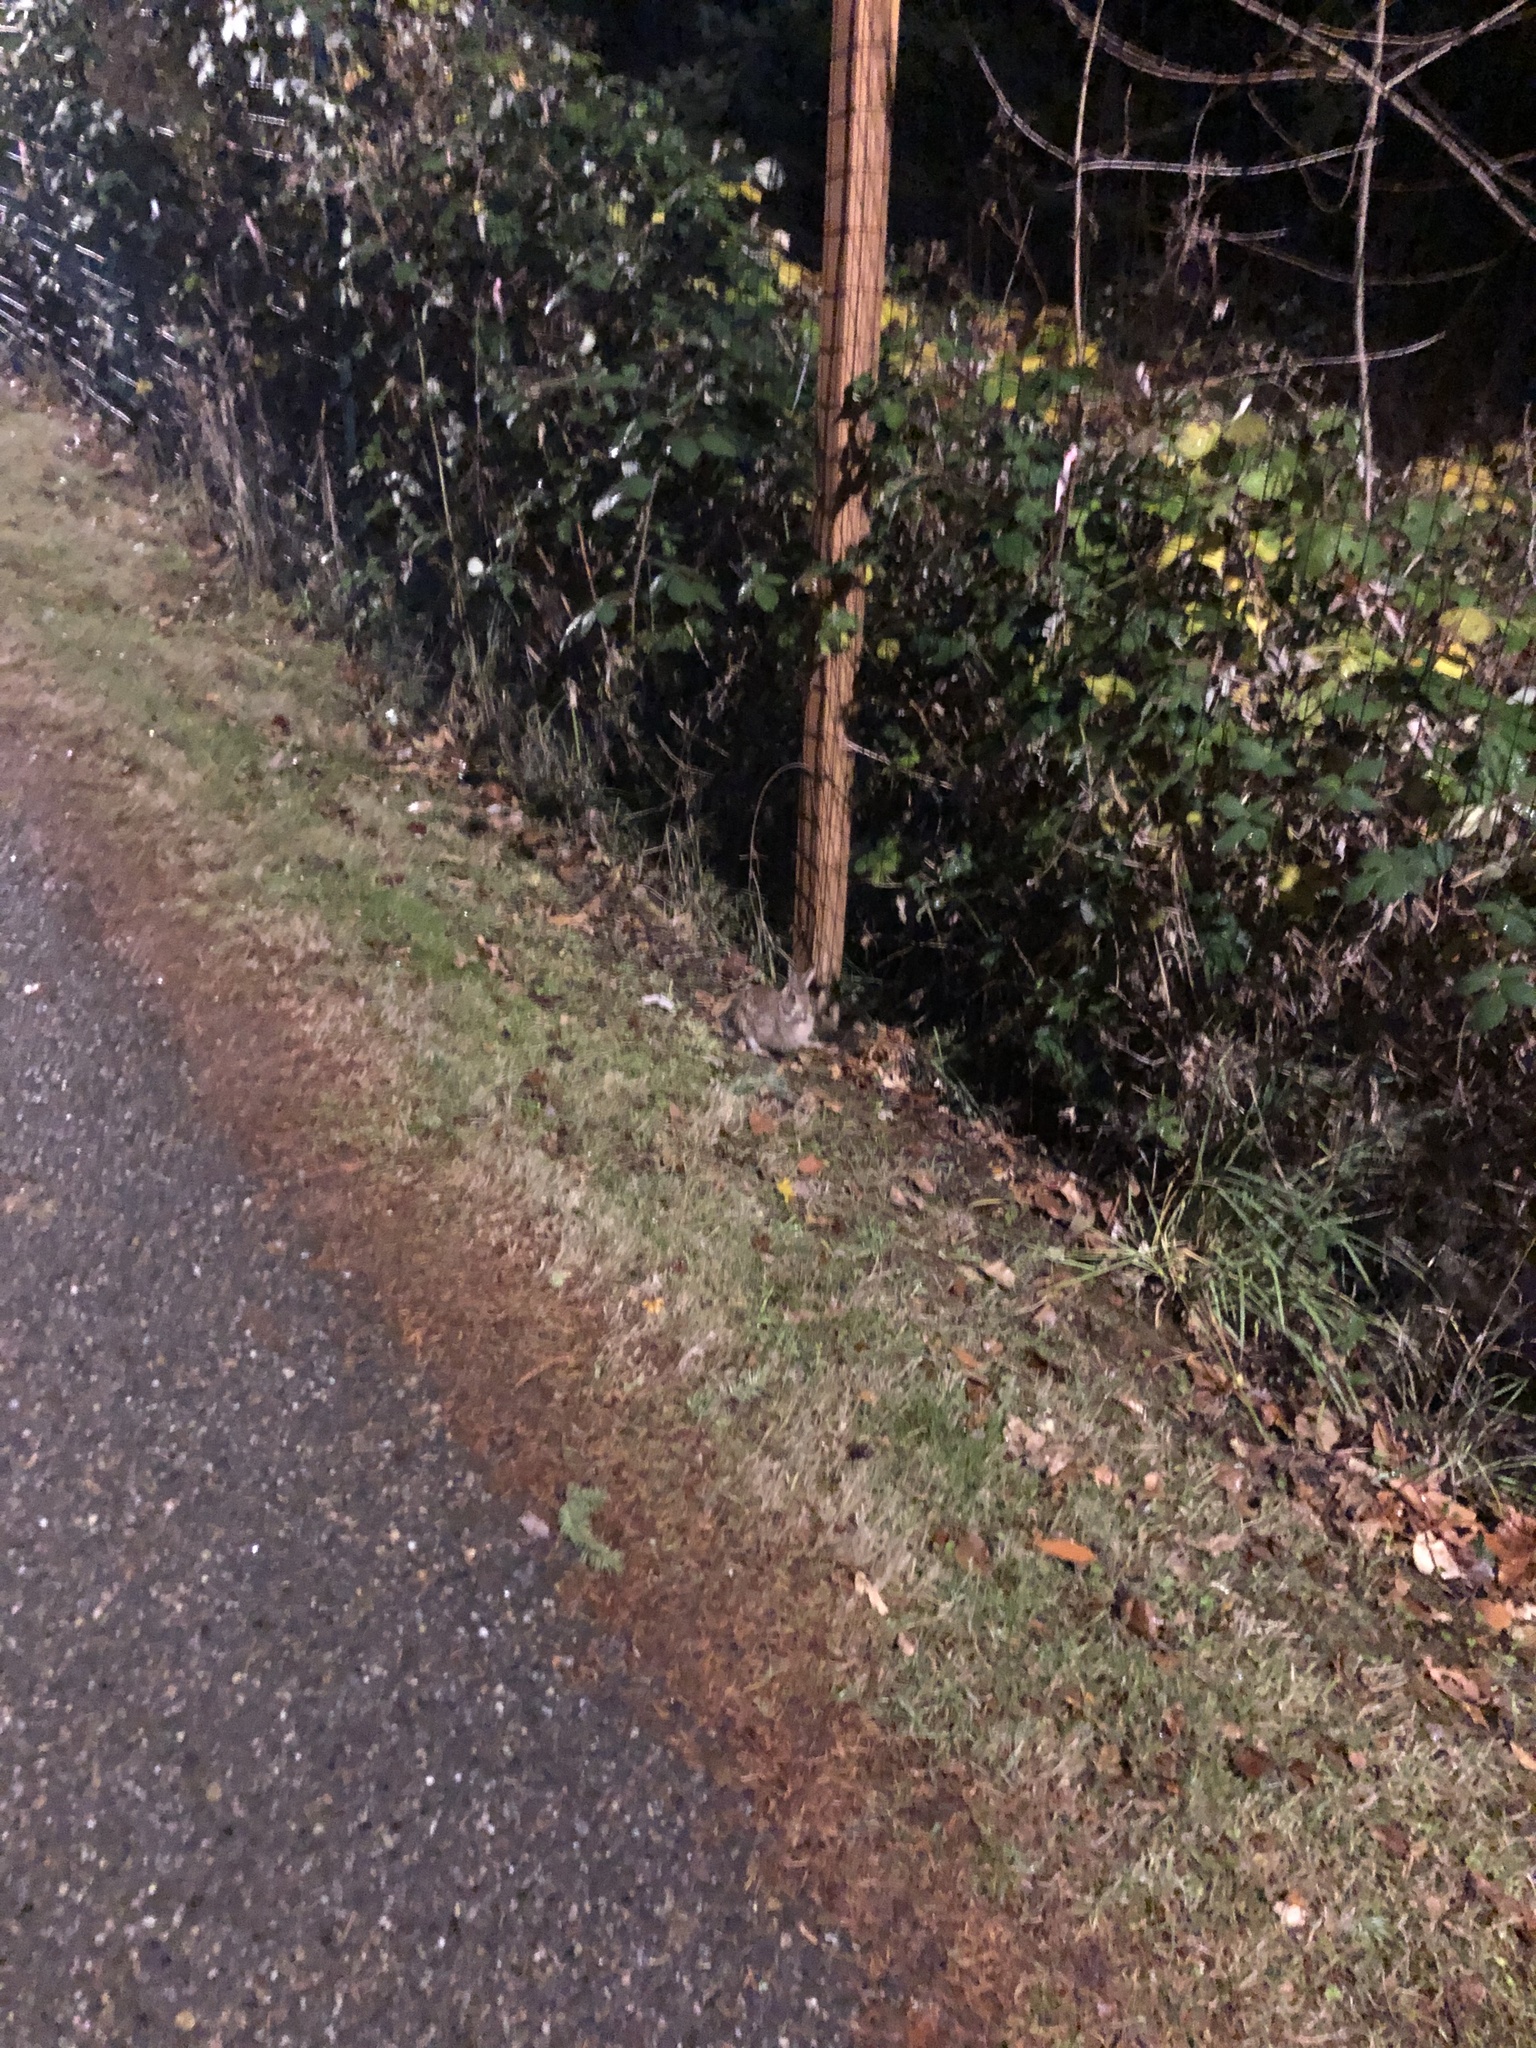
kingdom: Animalia
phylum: Chordata
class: Mammalia
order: Lagomorpha
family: Leporidae
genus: Sylvilagus
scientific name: Sylvilagus floridanus
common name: Eastern cottontail
